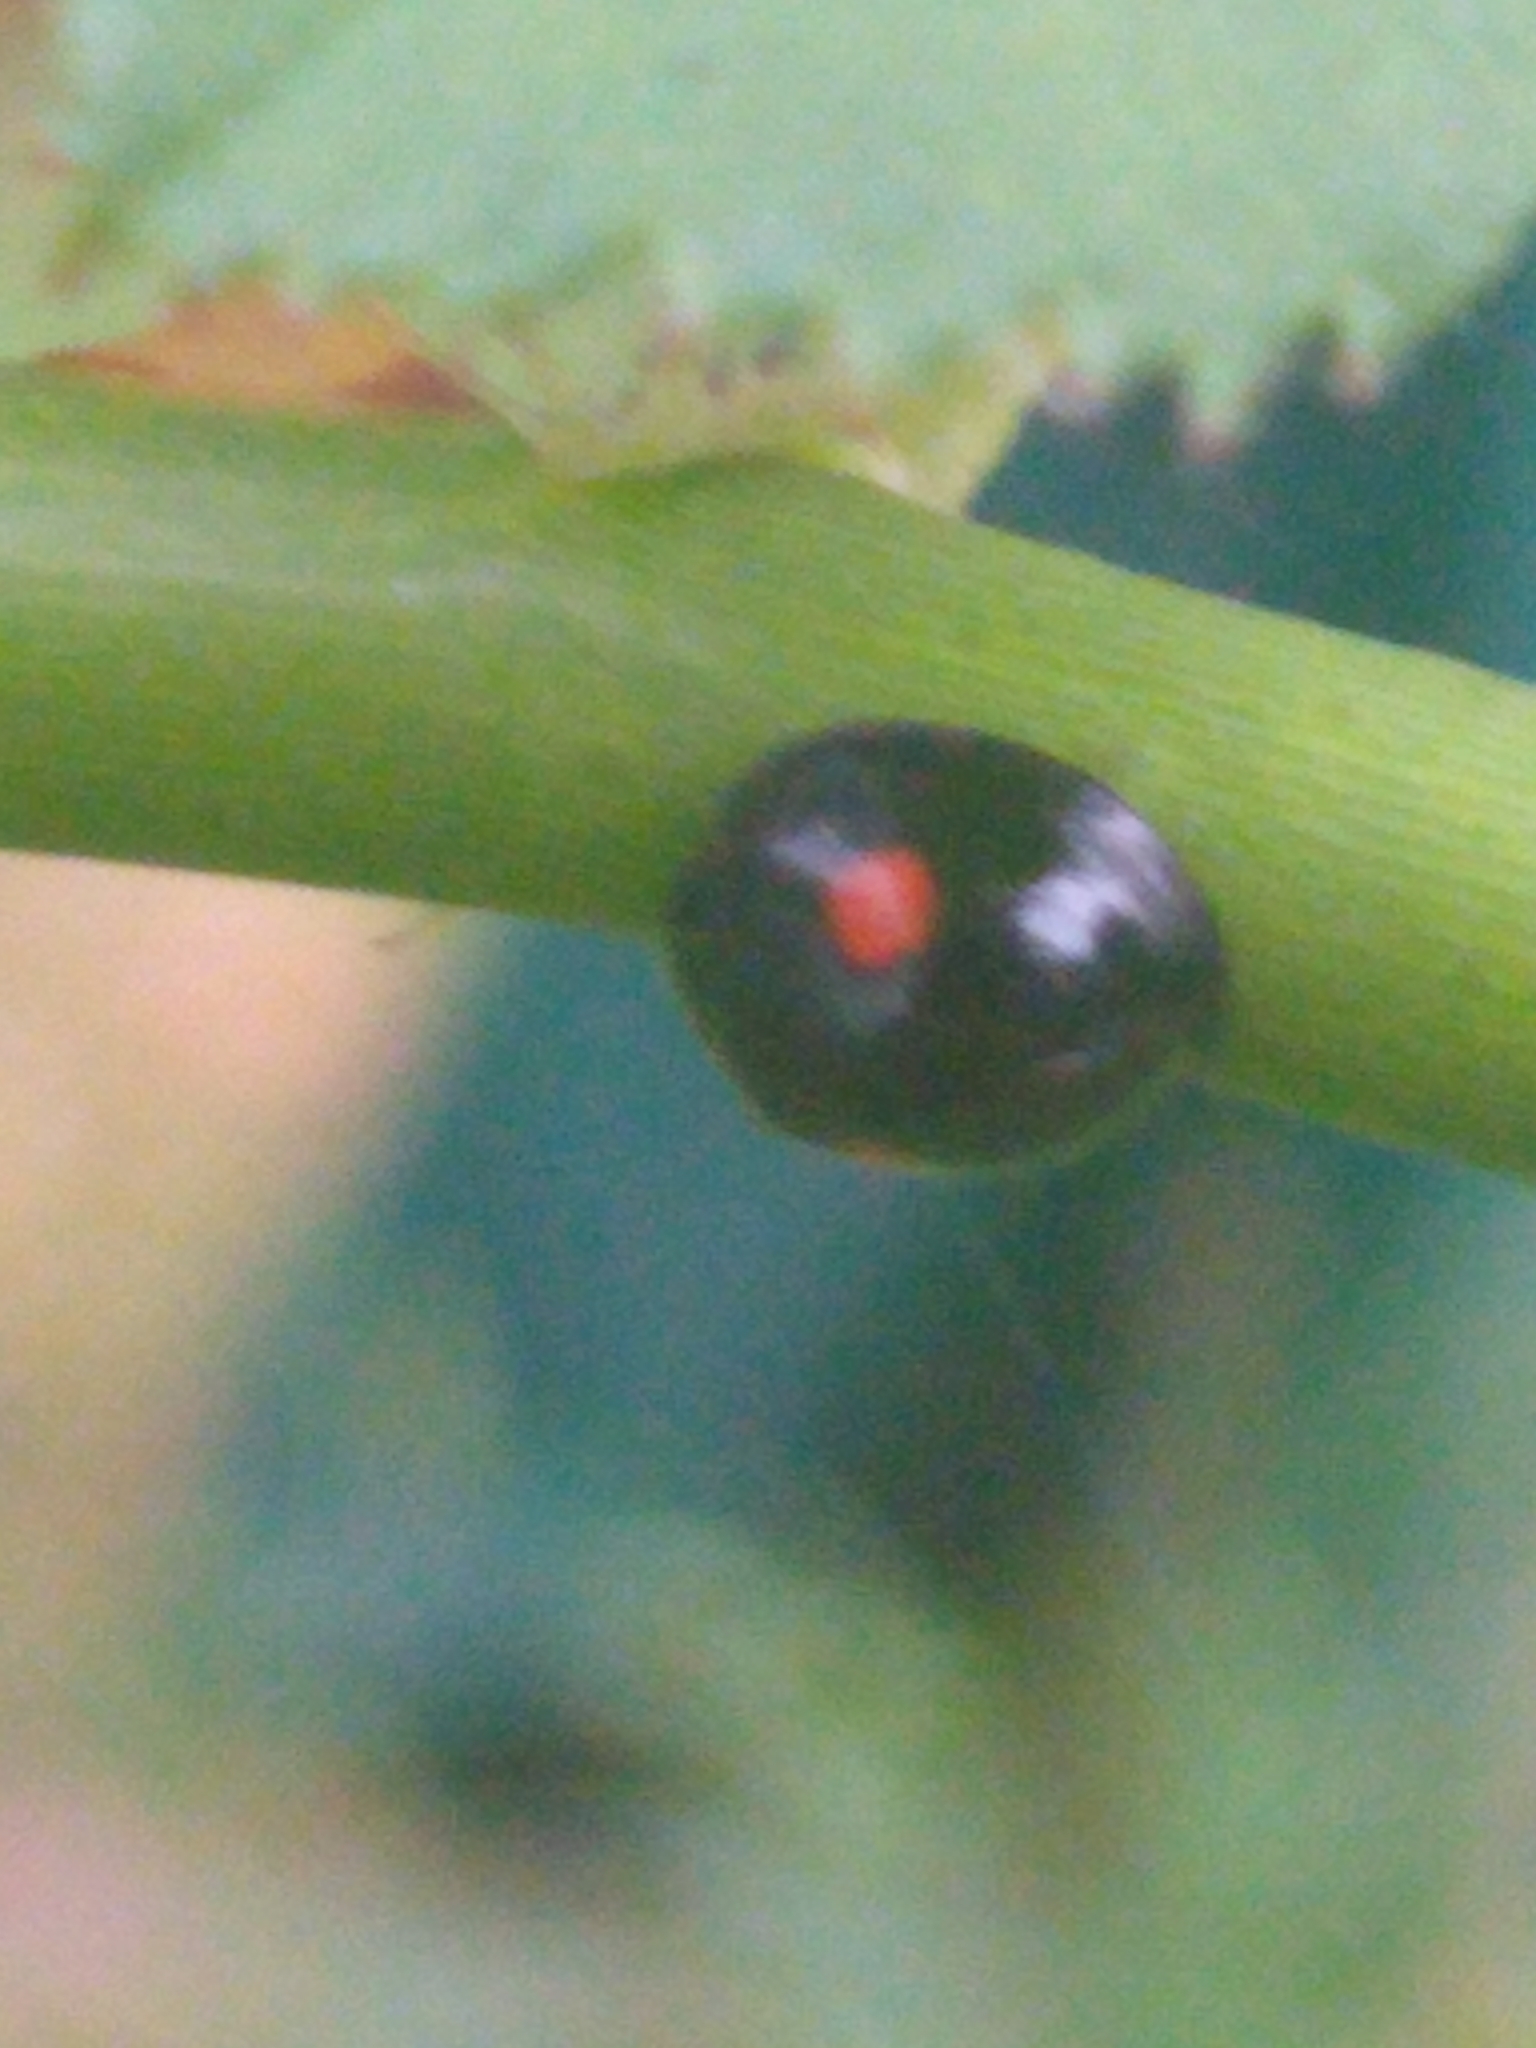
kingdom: Animalia
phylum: Arthropoda
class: Insecta
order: Coleoptera
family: Coccinellidae
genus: Chilocorus
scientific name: Chilocorus stigma
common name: Twicestabbed lady beetle
